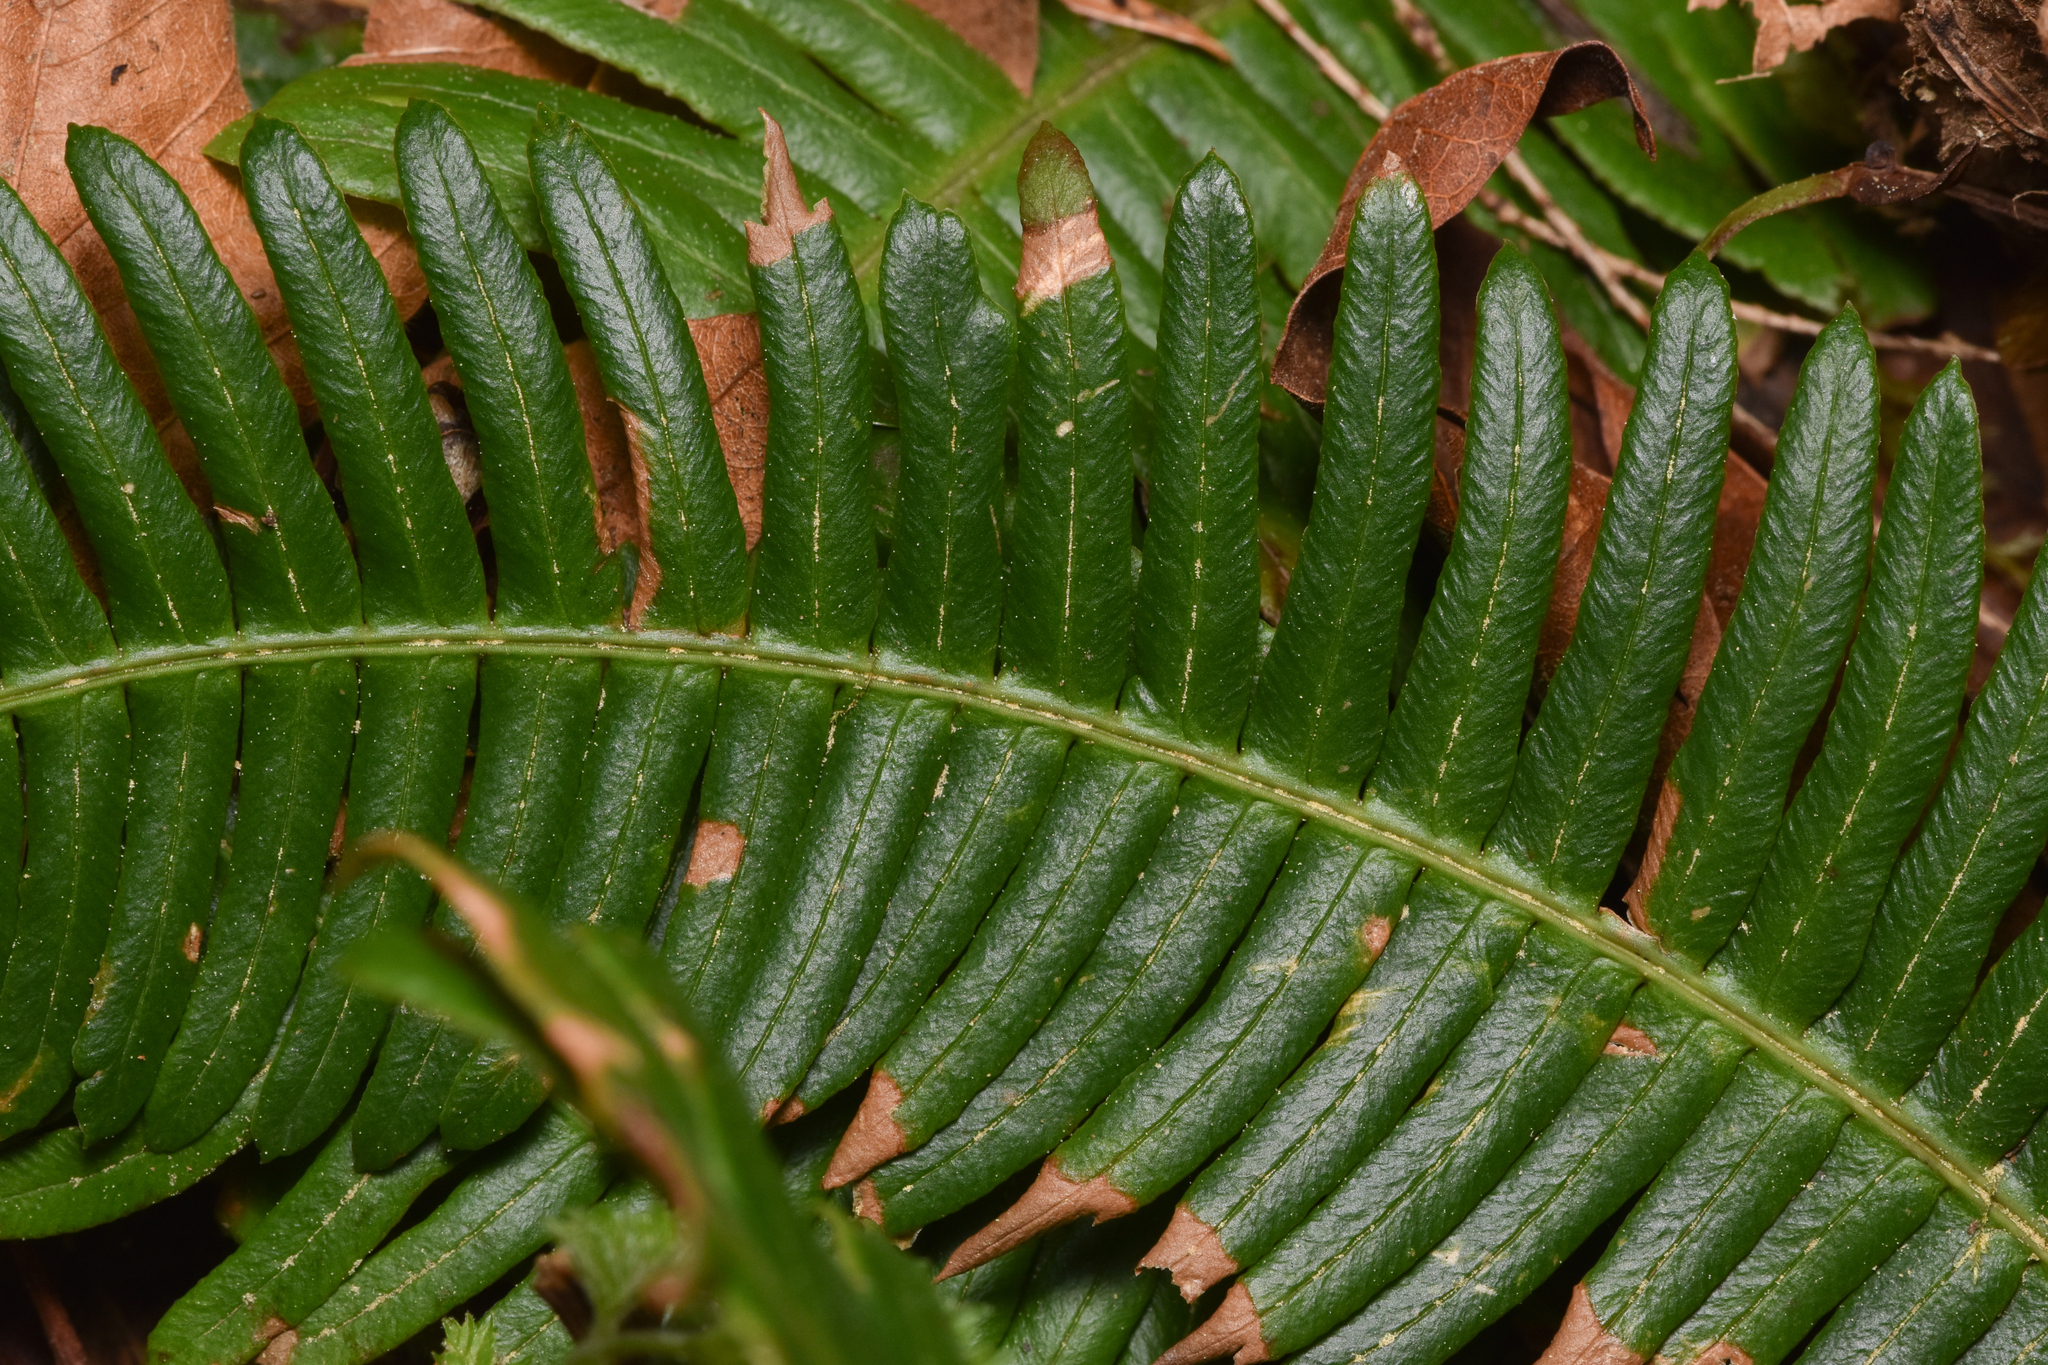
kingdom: Plantae
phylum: Tracheophyta
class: Polypodiopsida
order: Polypodiales
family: Blechnaceae
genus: Struthiopteris
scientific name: Struthiopteris spicant
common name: Deer fern
